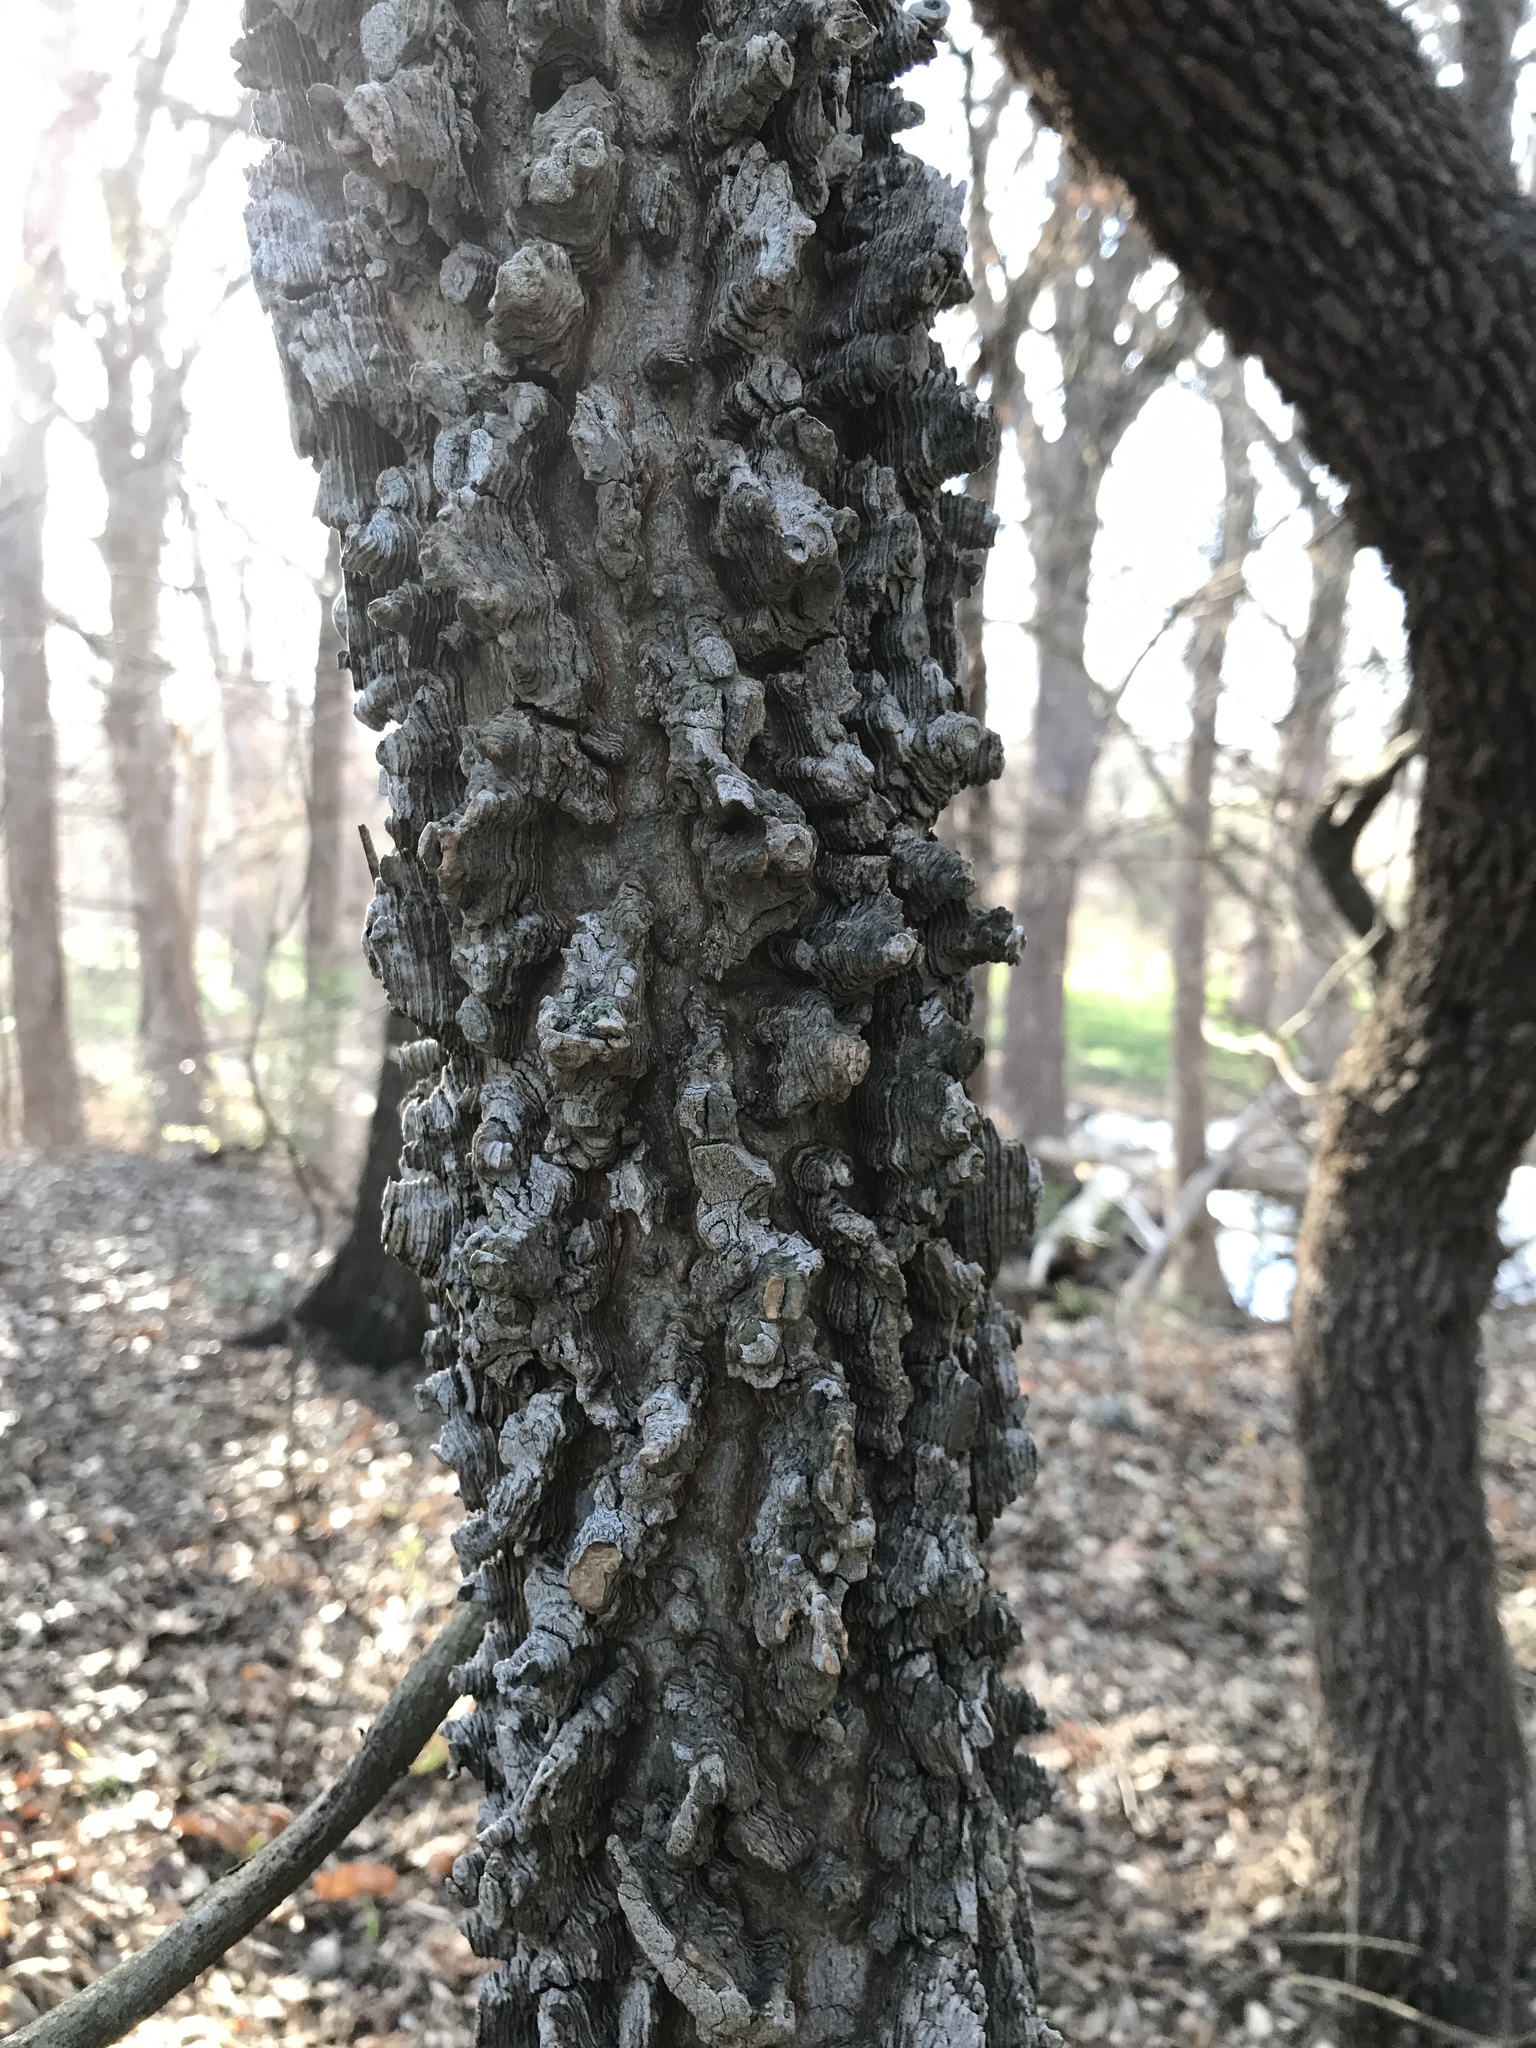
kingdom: Plantae
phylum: Tracheophyta
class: Magnoliopsida
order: Rosales
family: Cannabaceae
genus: Celtis
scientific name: Celtis laevigata
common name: Sugarberry
